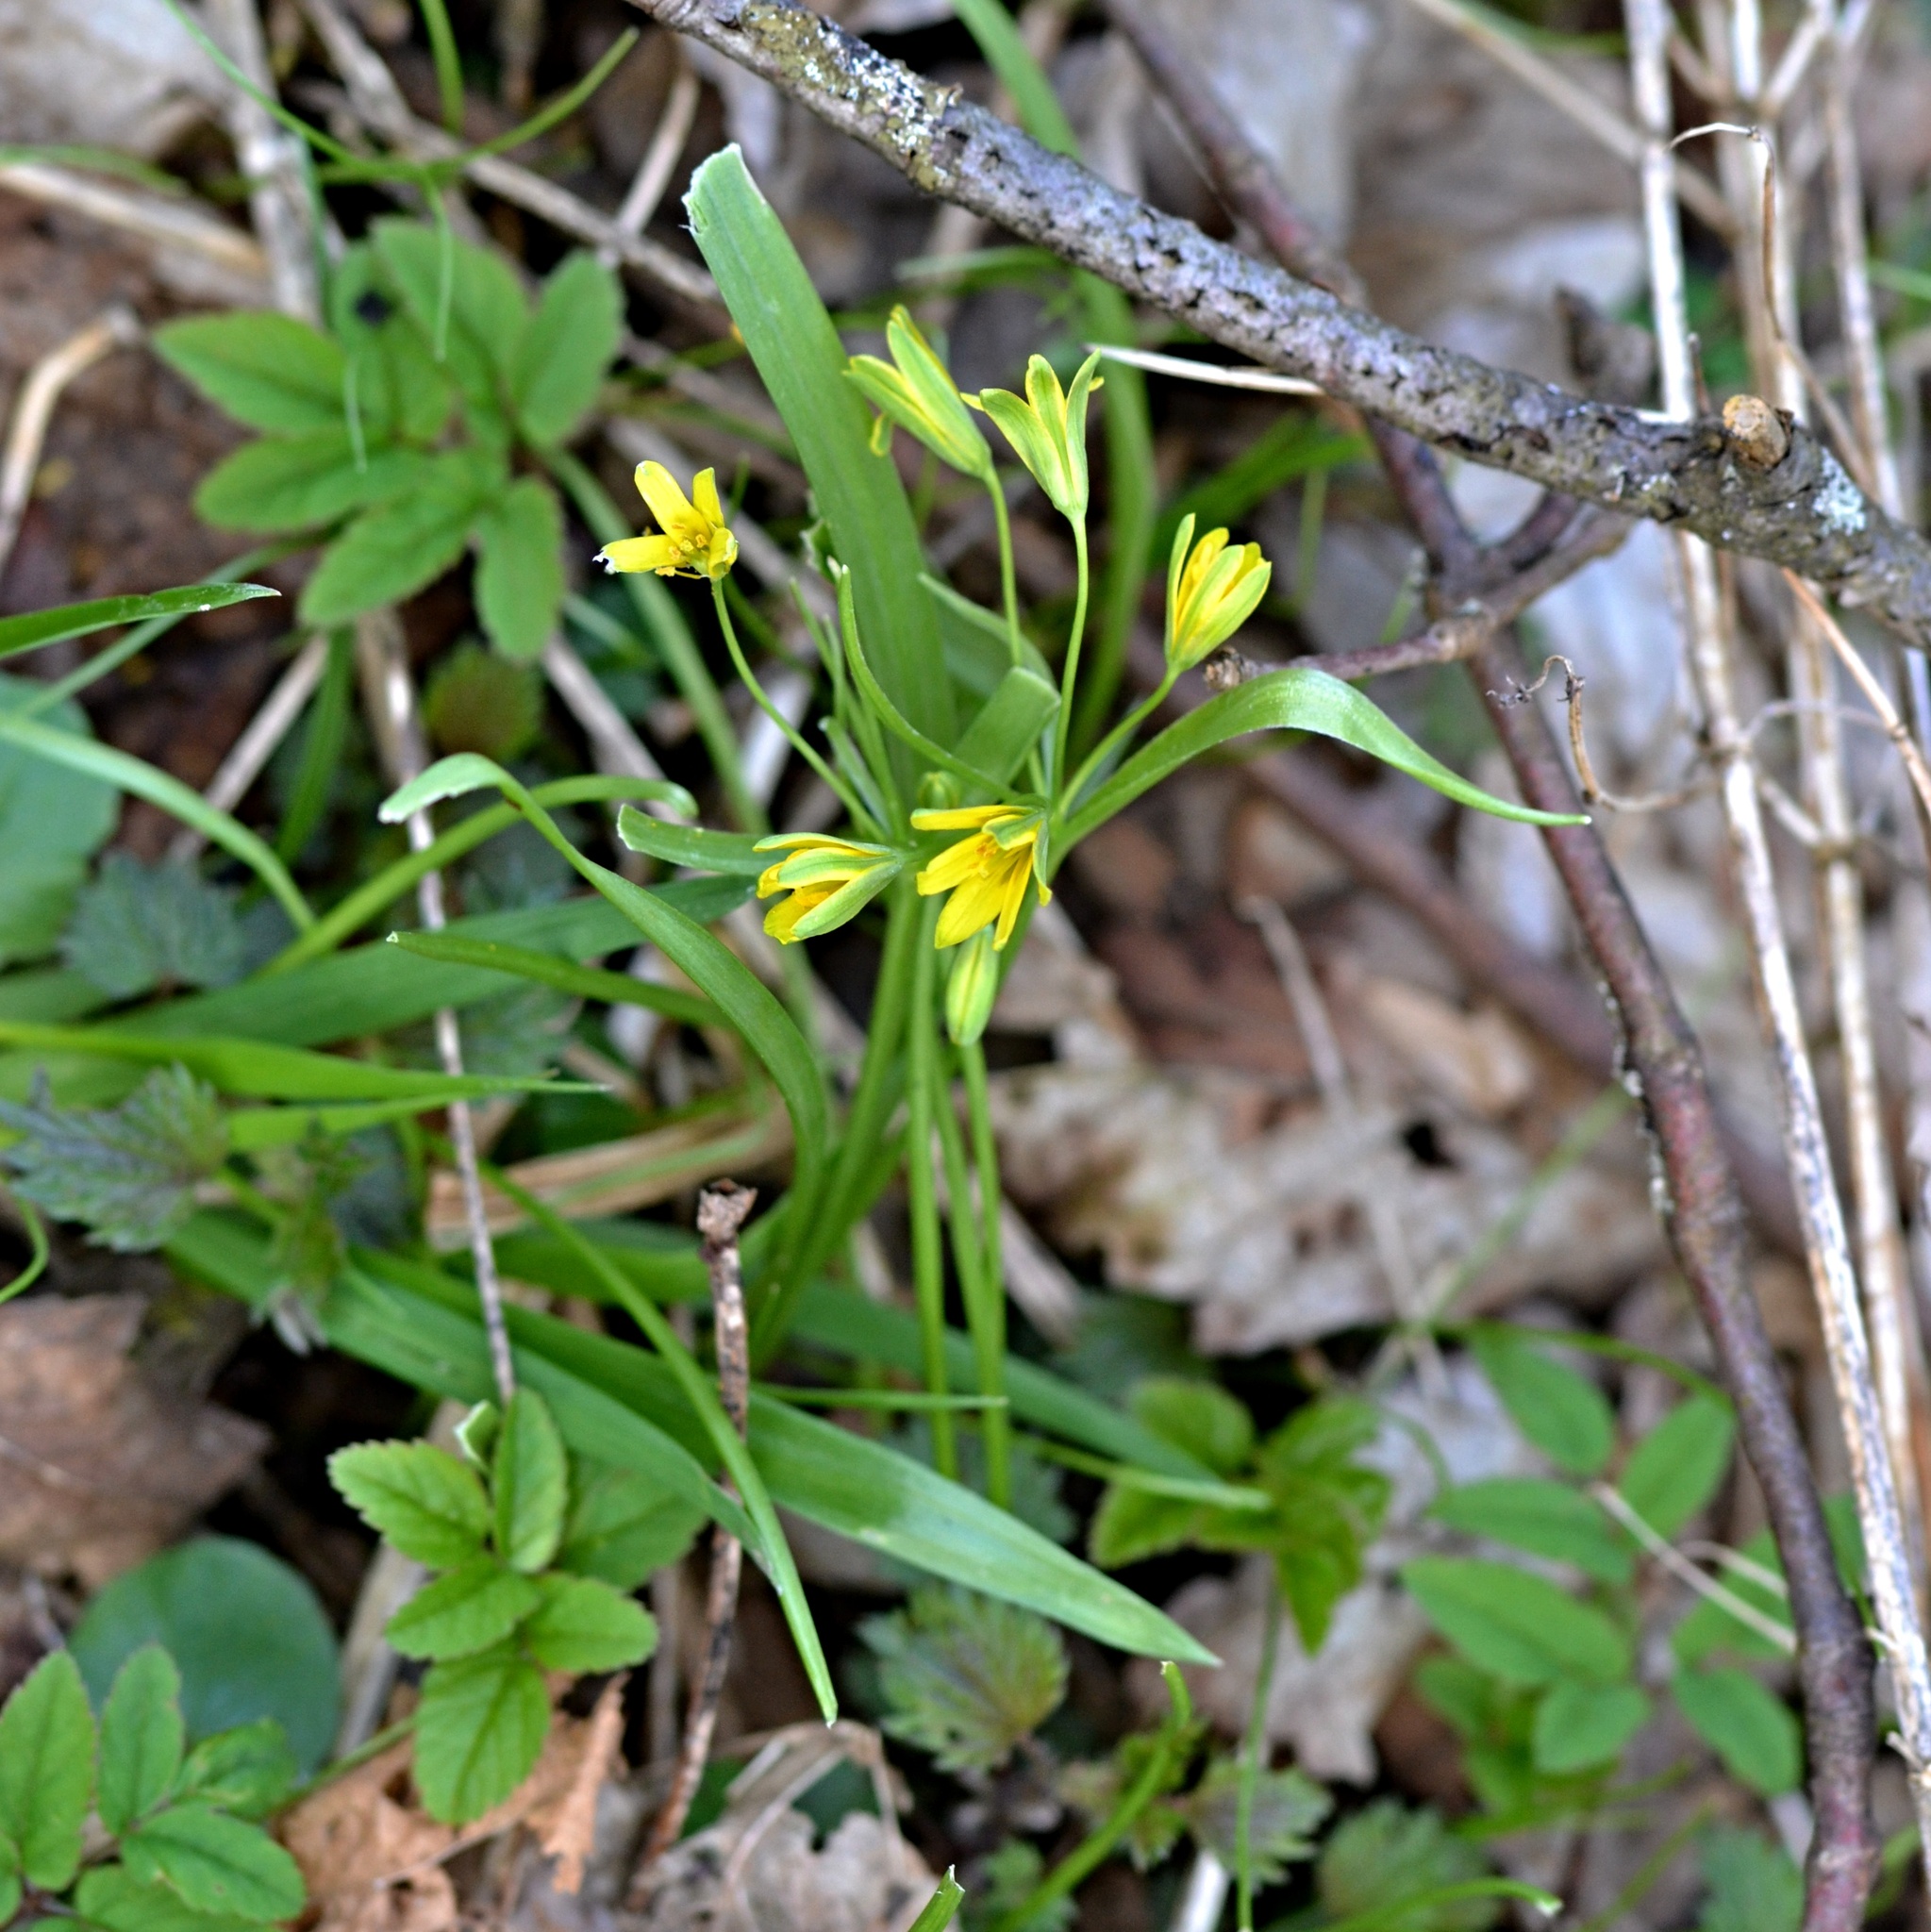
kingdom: Plantae
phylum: Tracheophyta
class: Liliopsida
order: Liliales
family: Liliaceae
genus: Gagea
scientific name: Gagea lutea
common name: Yellow star-of-bethlehem
